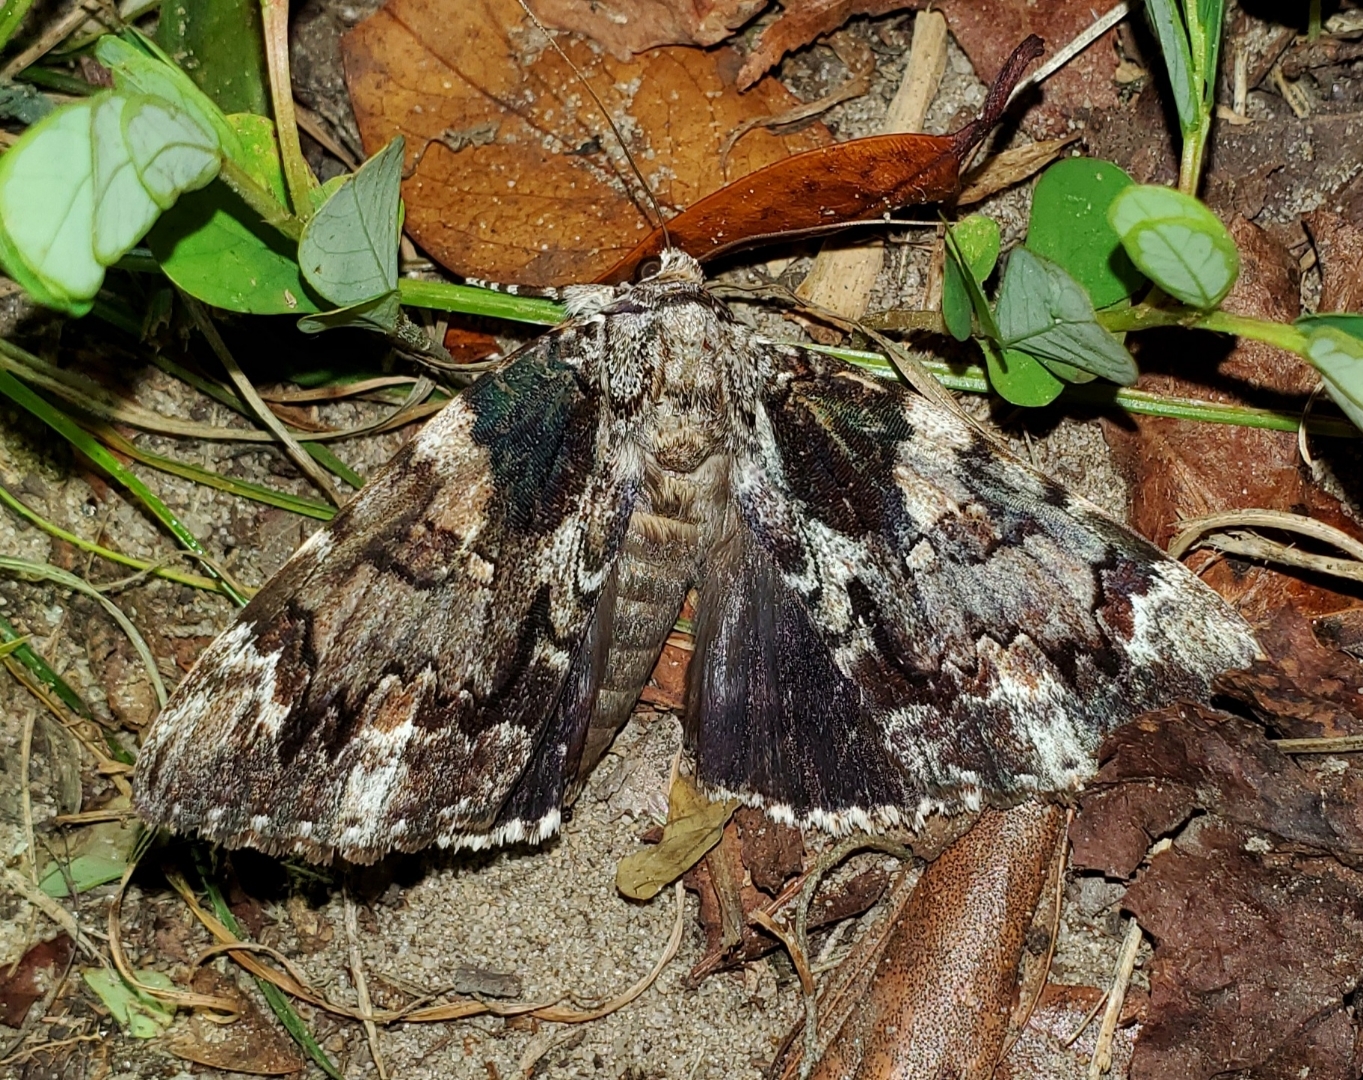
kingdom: Animalia
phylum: Arthropoda
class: Insecta
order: Lepidoptera
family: Erebidae
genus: Catocala
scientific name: Catocala lacrymosa
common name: Tearful underwing
